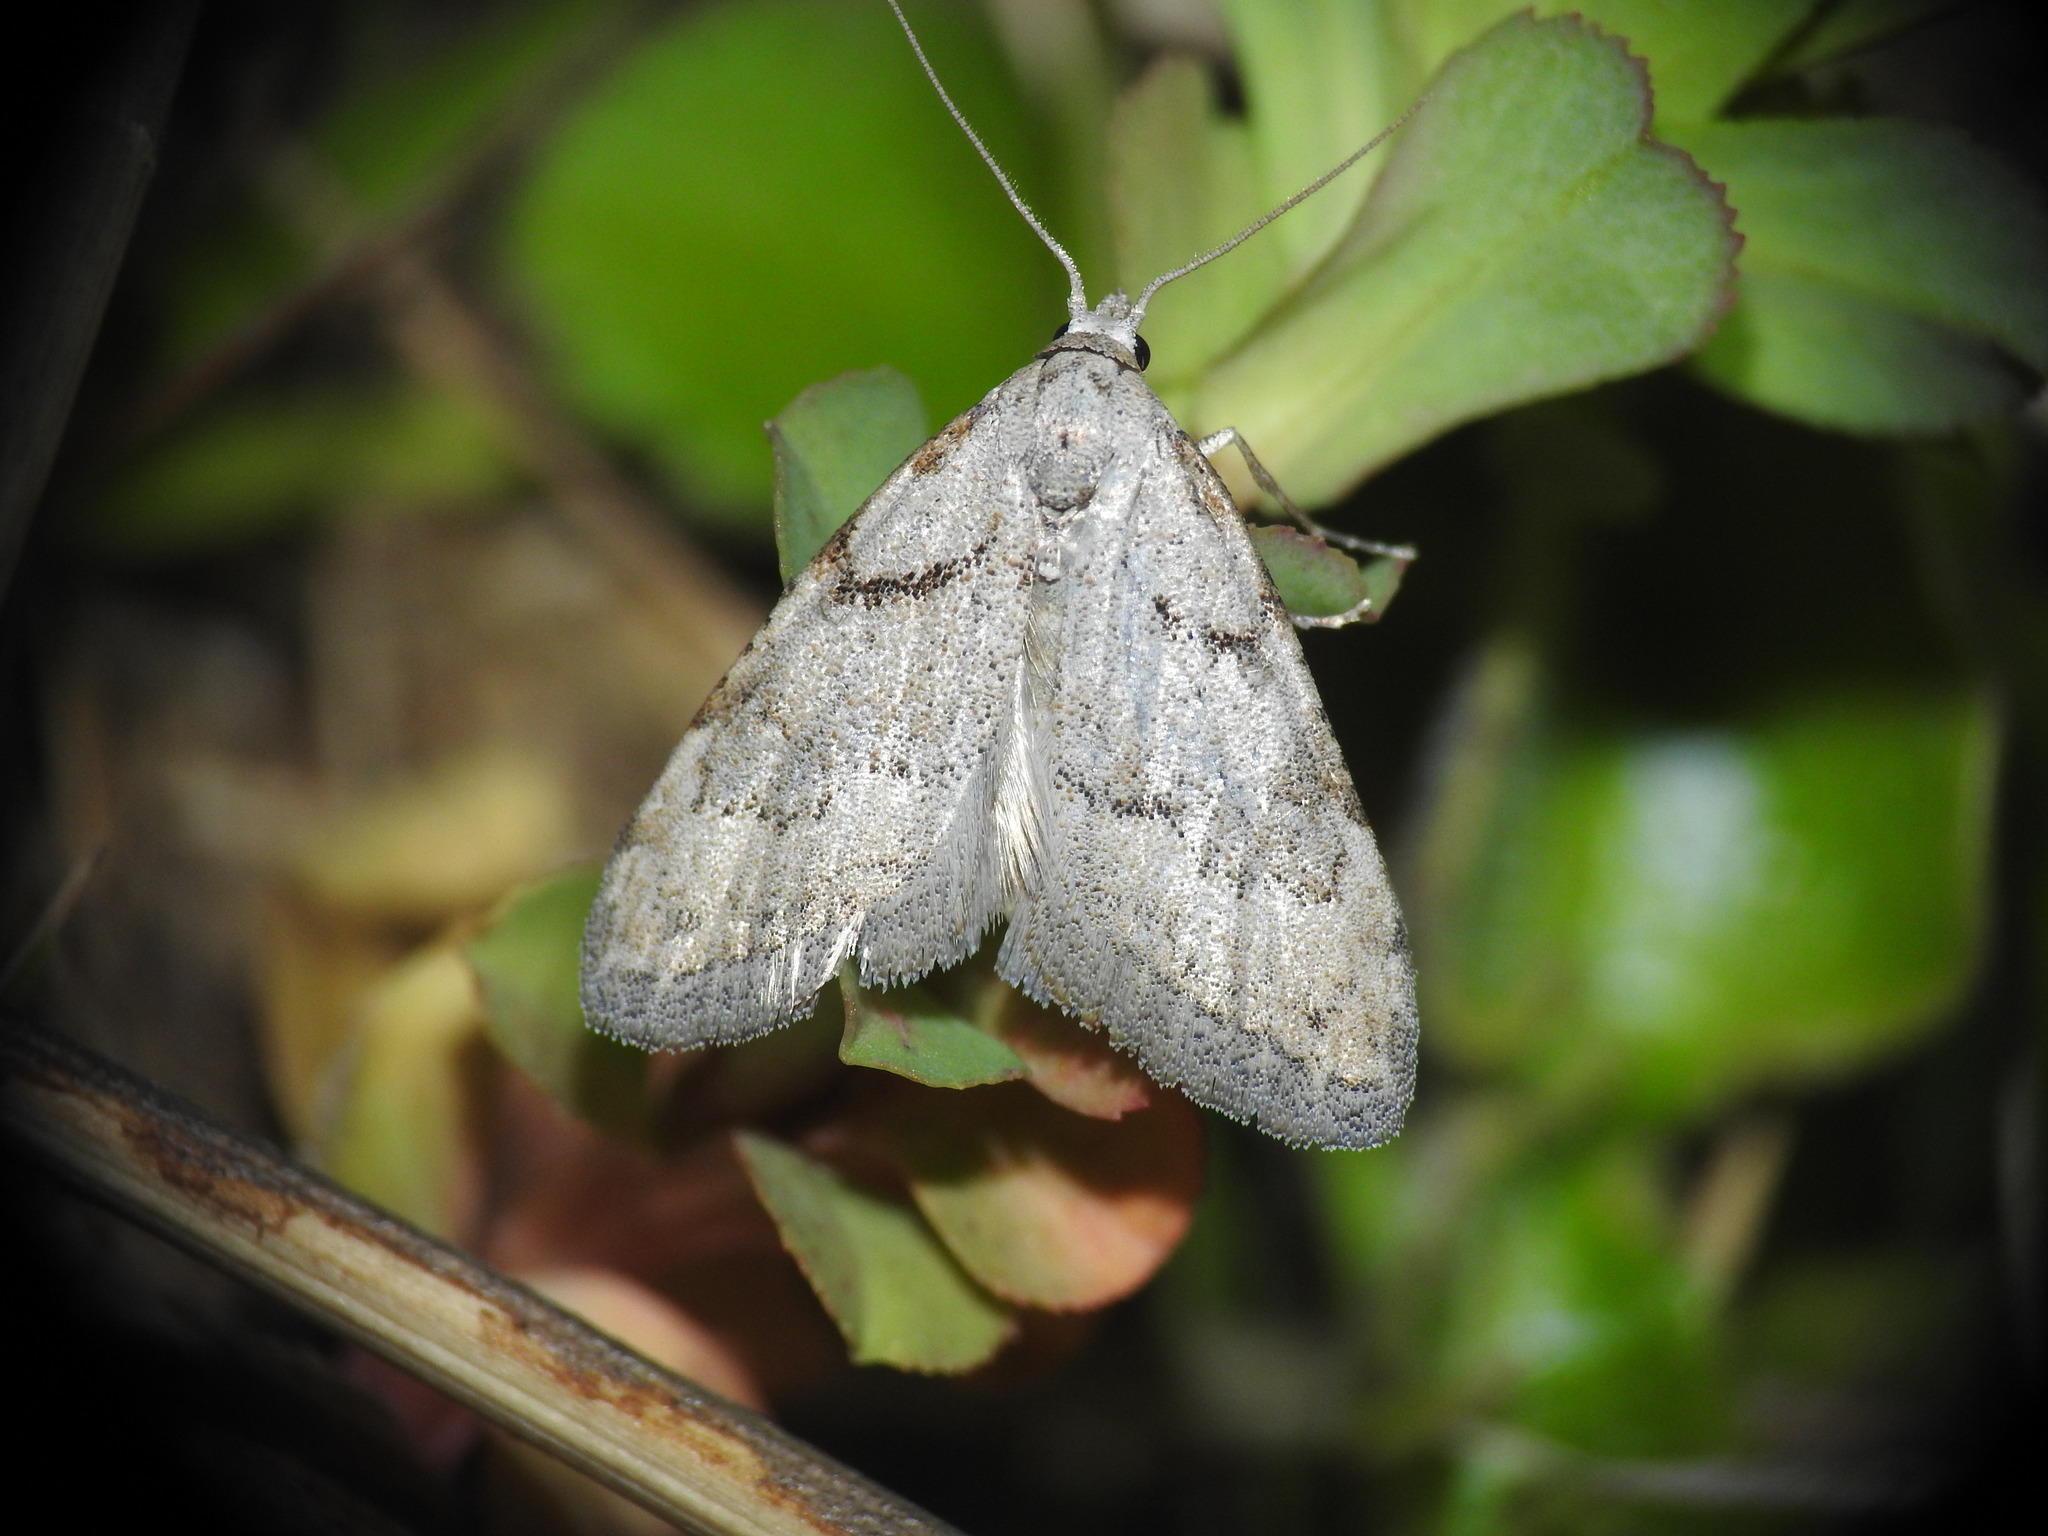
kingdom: Animalia
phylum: Arthropoda
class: Insecta
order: Lepidoptera
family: Nolidae
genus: Nola
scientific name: Nola thymula
